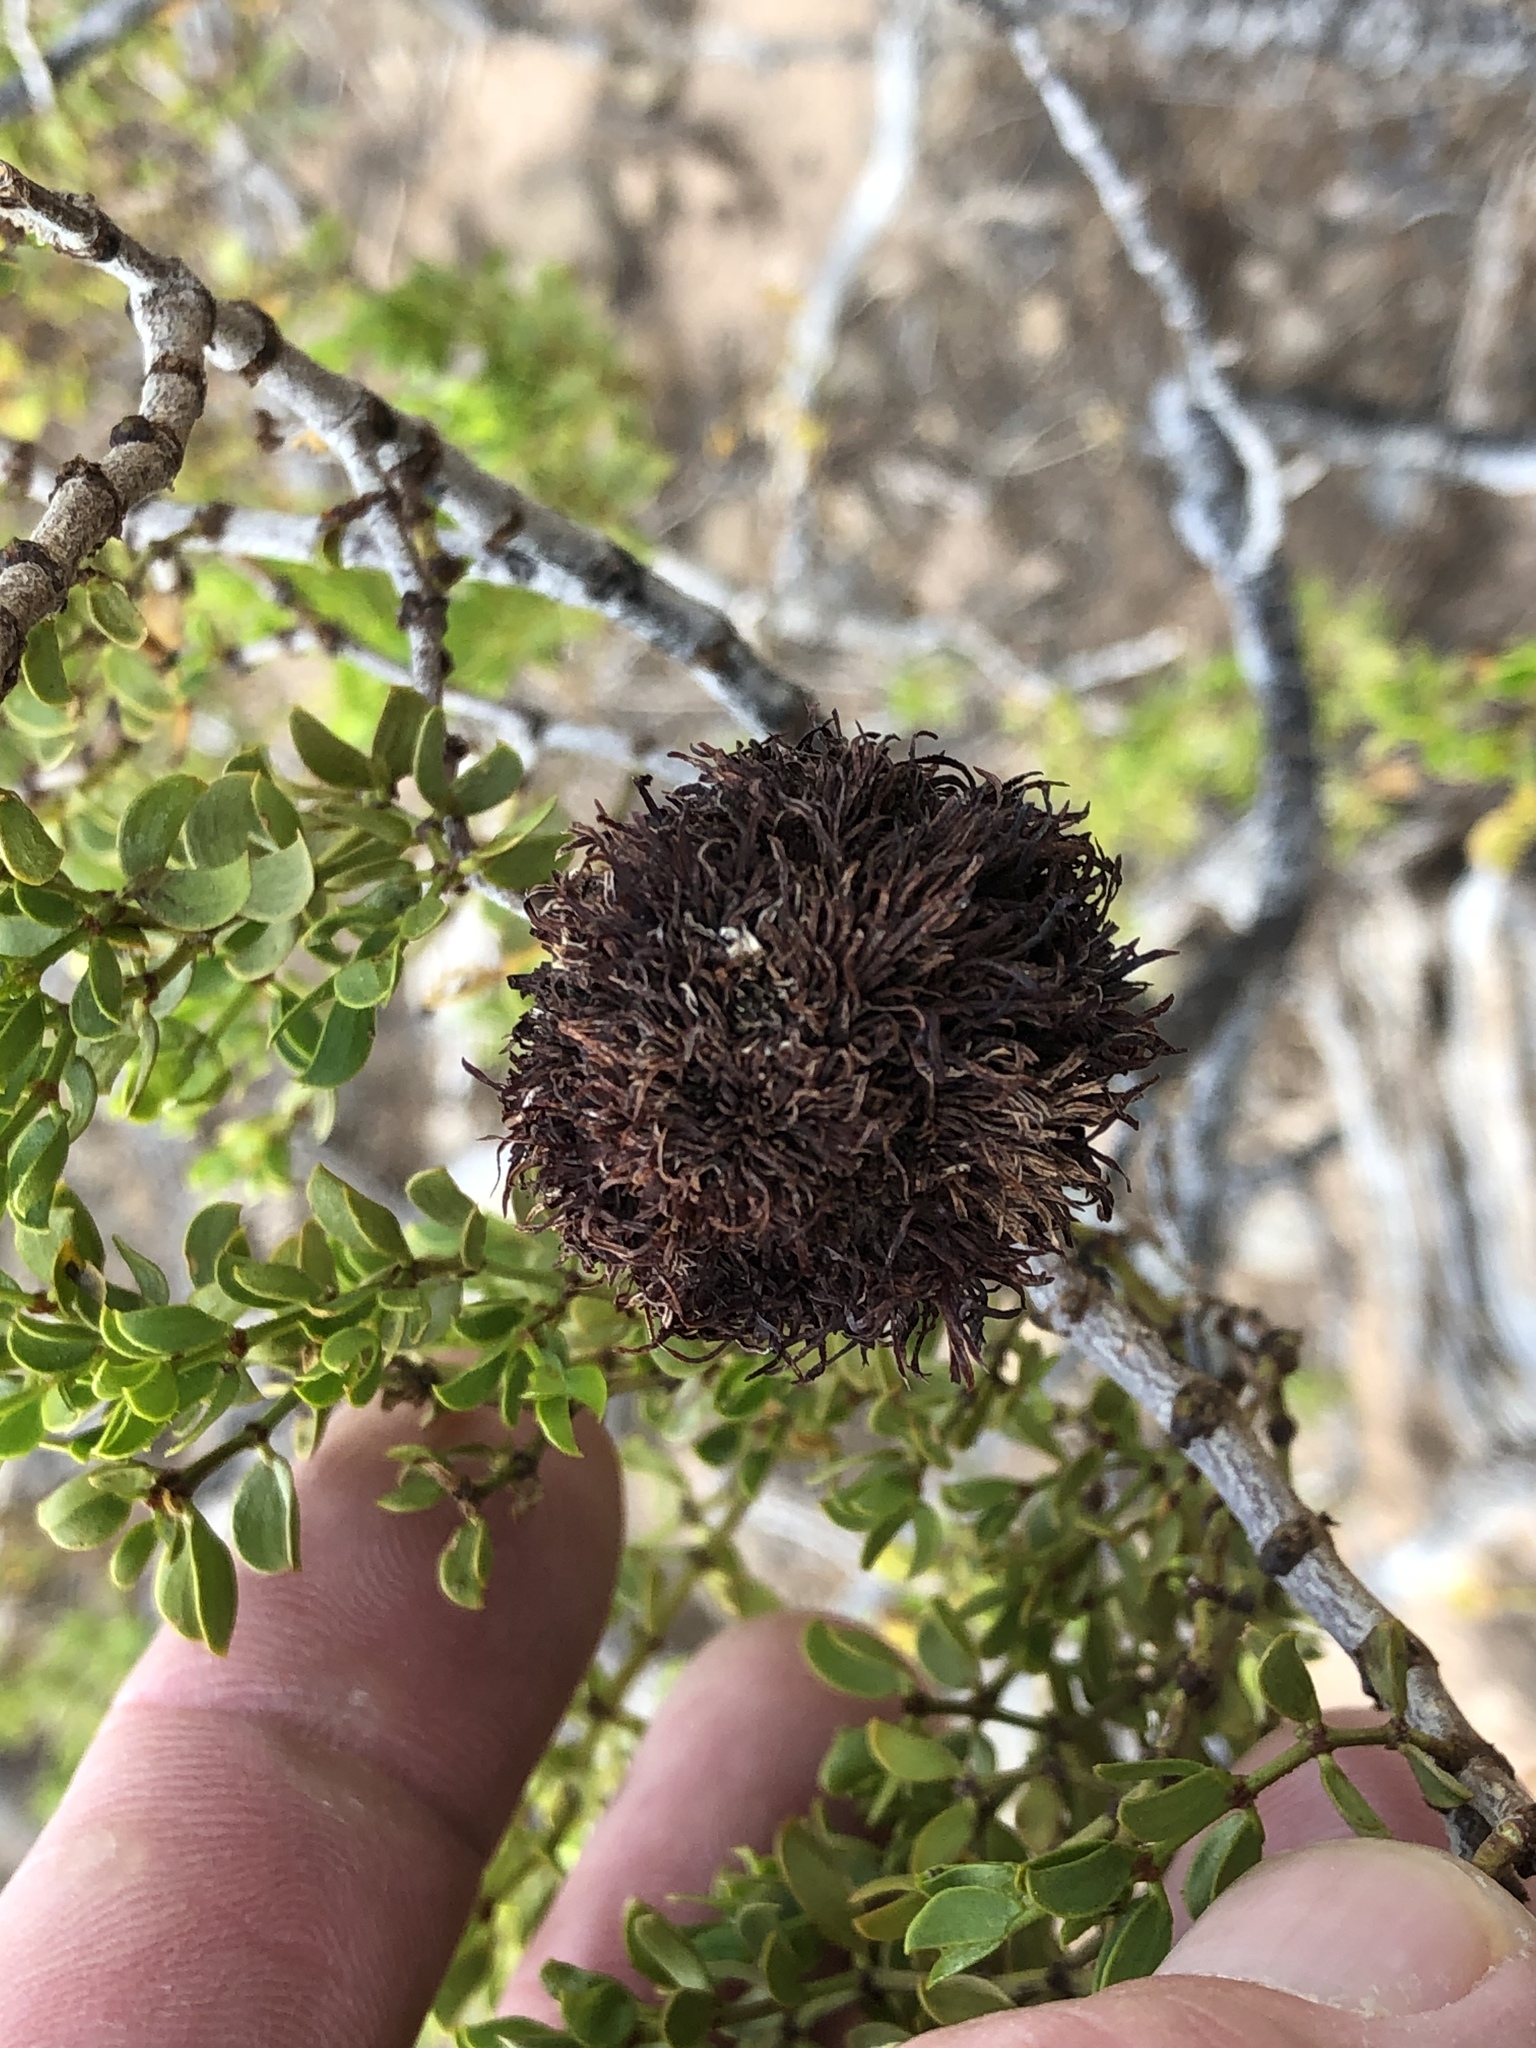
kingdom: Animalia
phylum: Arthropoda
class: Insecta
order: Diptera
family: Cecidomyiidae
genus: Asphondylia
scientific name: Asphondylia auripila
